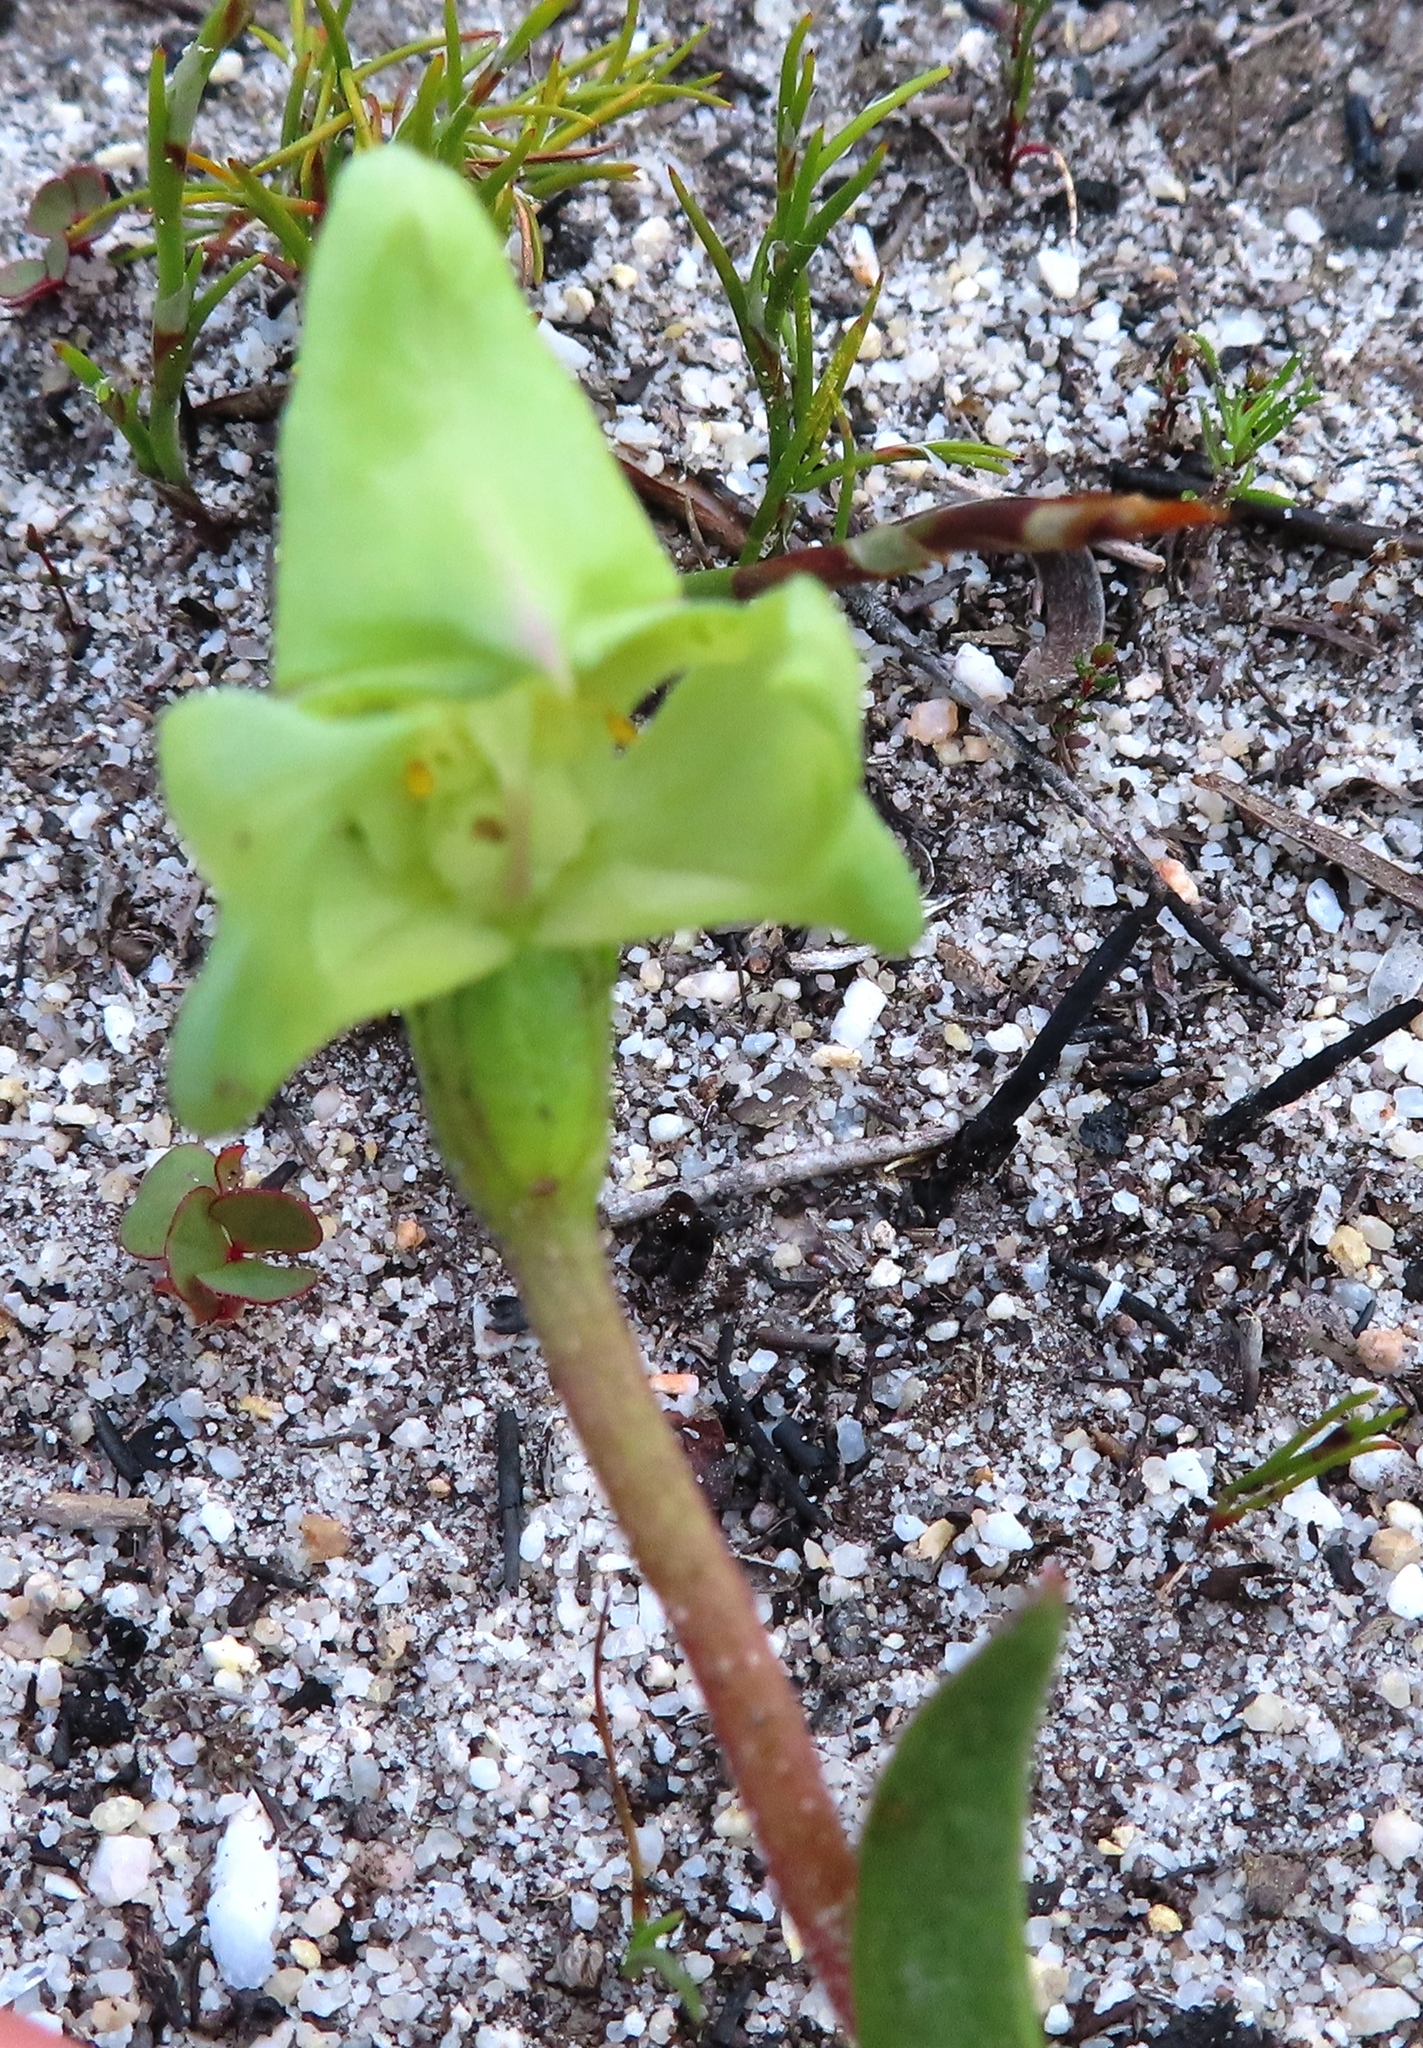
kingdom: Plantae
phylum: Tracheophyta
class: Liliopsida
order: Asparagales
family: Orchidaceae
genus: Disperis
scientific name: Disperis cucullata
